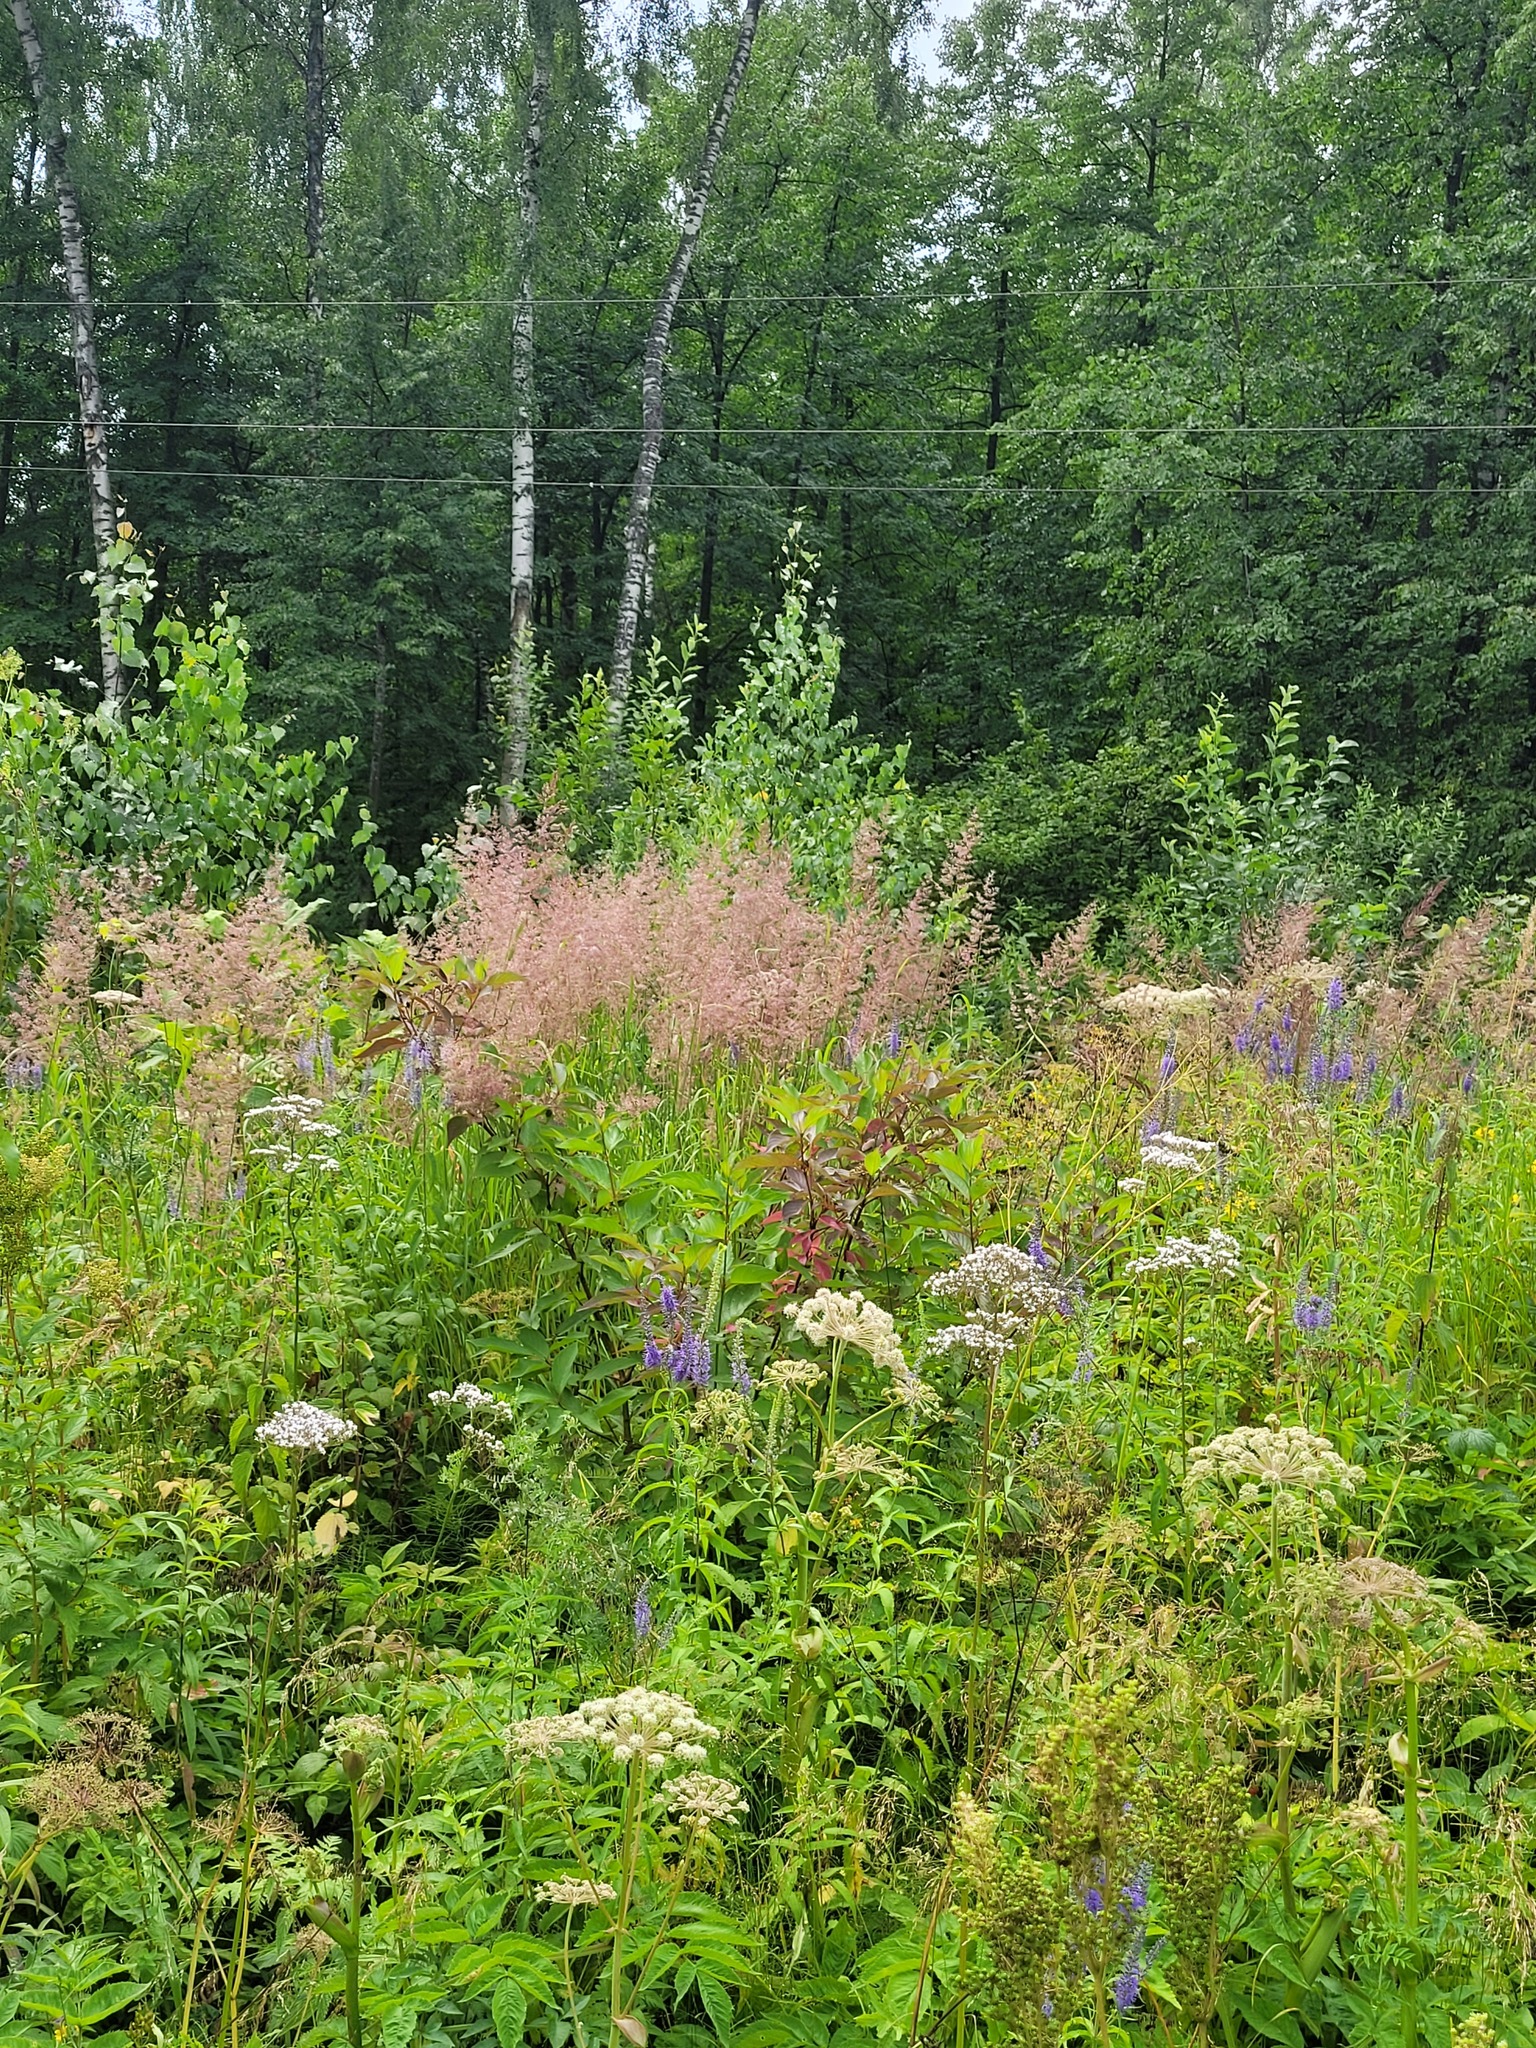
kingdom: Plantae
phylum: Tracheophyta
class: Magnoliopsida
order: Cornales
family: Cornaceae
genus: Cornus
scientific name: Cornus alba
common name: White dogwood
